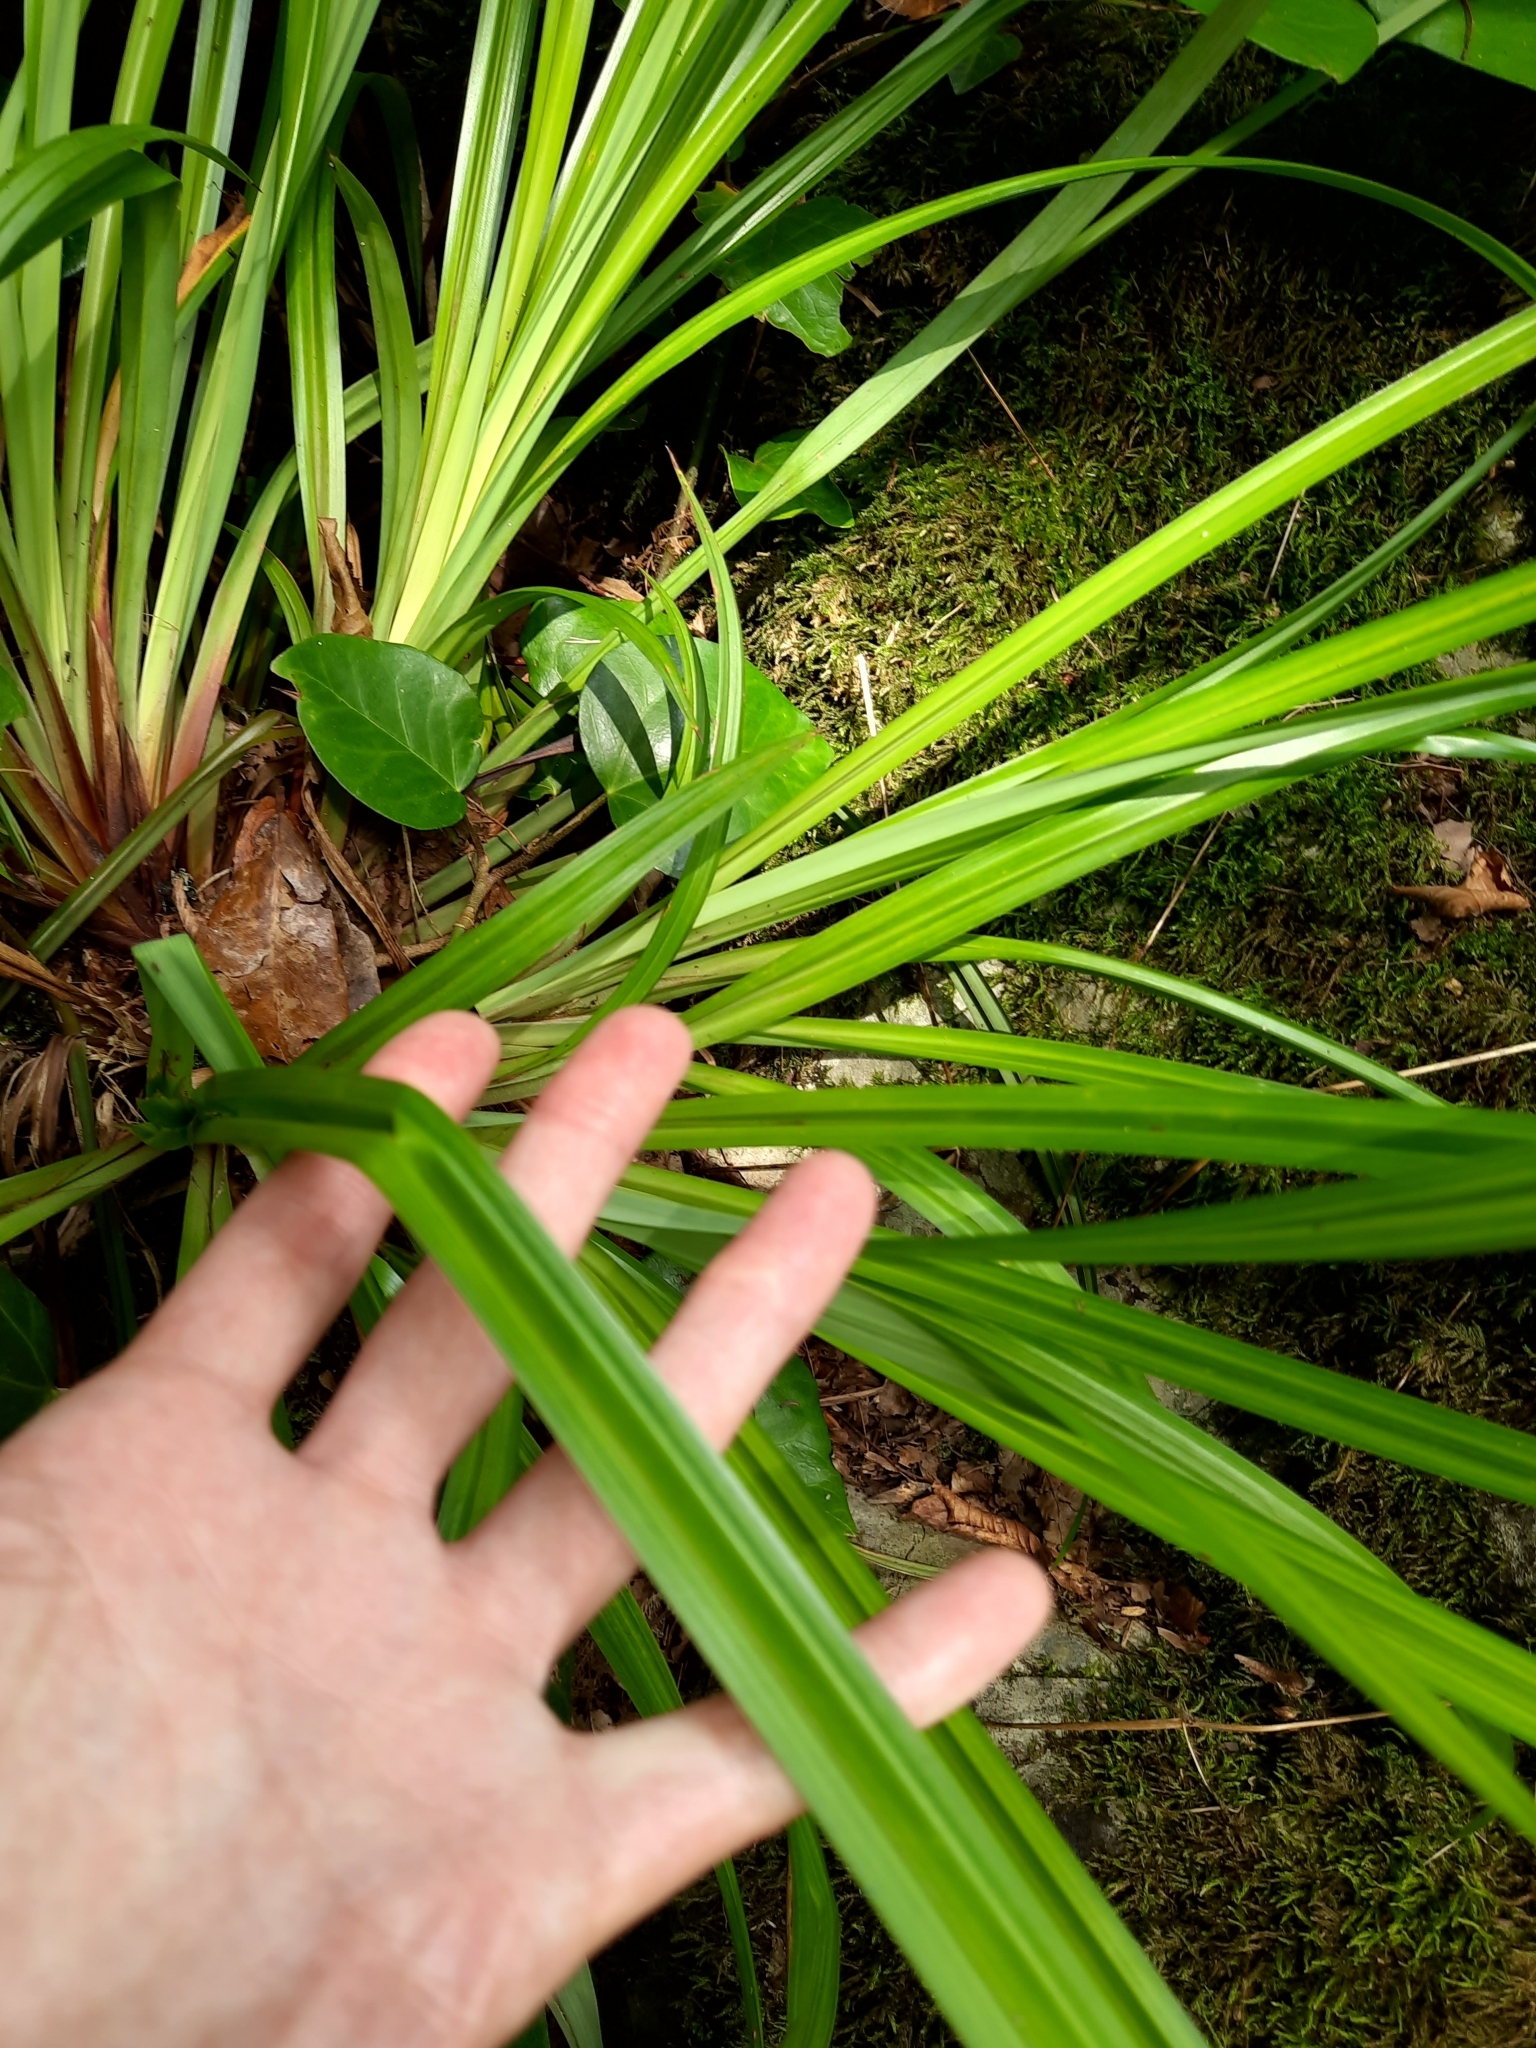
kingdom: Plantae
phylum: Tracheophyta
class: Liliopsida
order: Poales
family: Cyperaceae
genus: Carex
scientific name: Carex pendula
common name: Pendulous sedge
